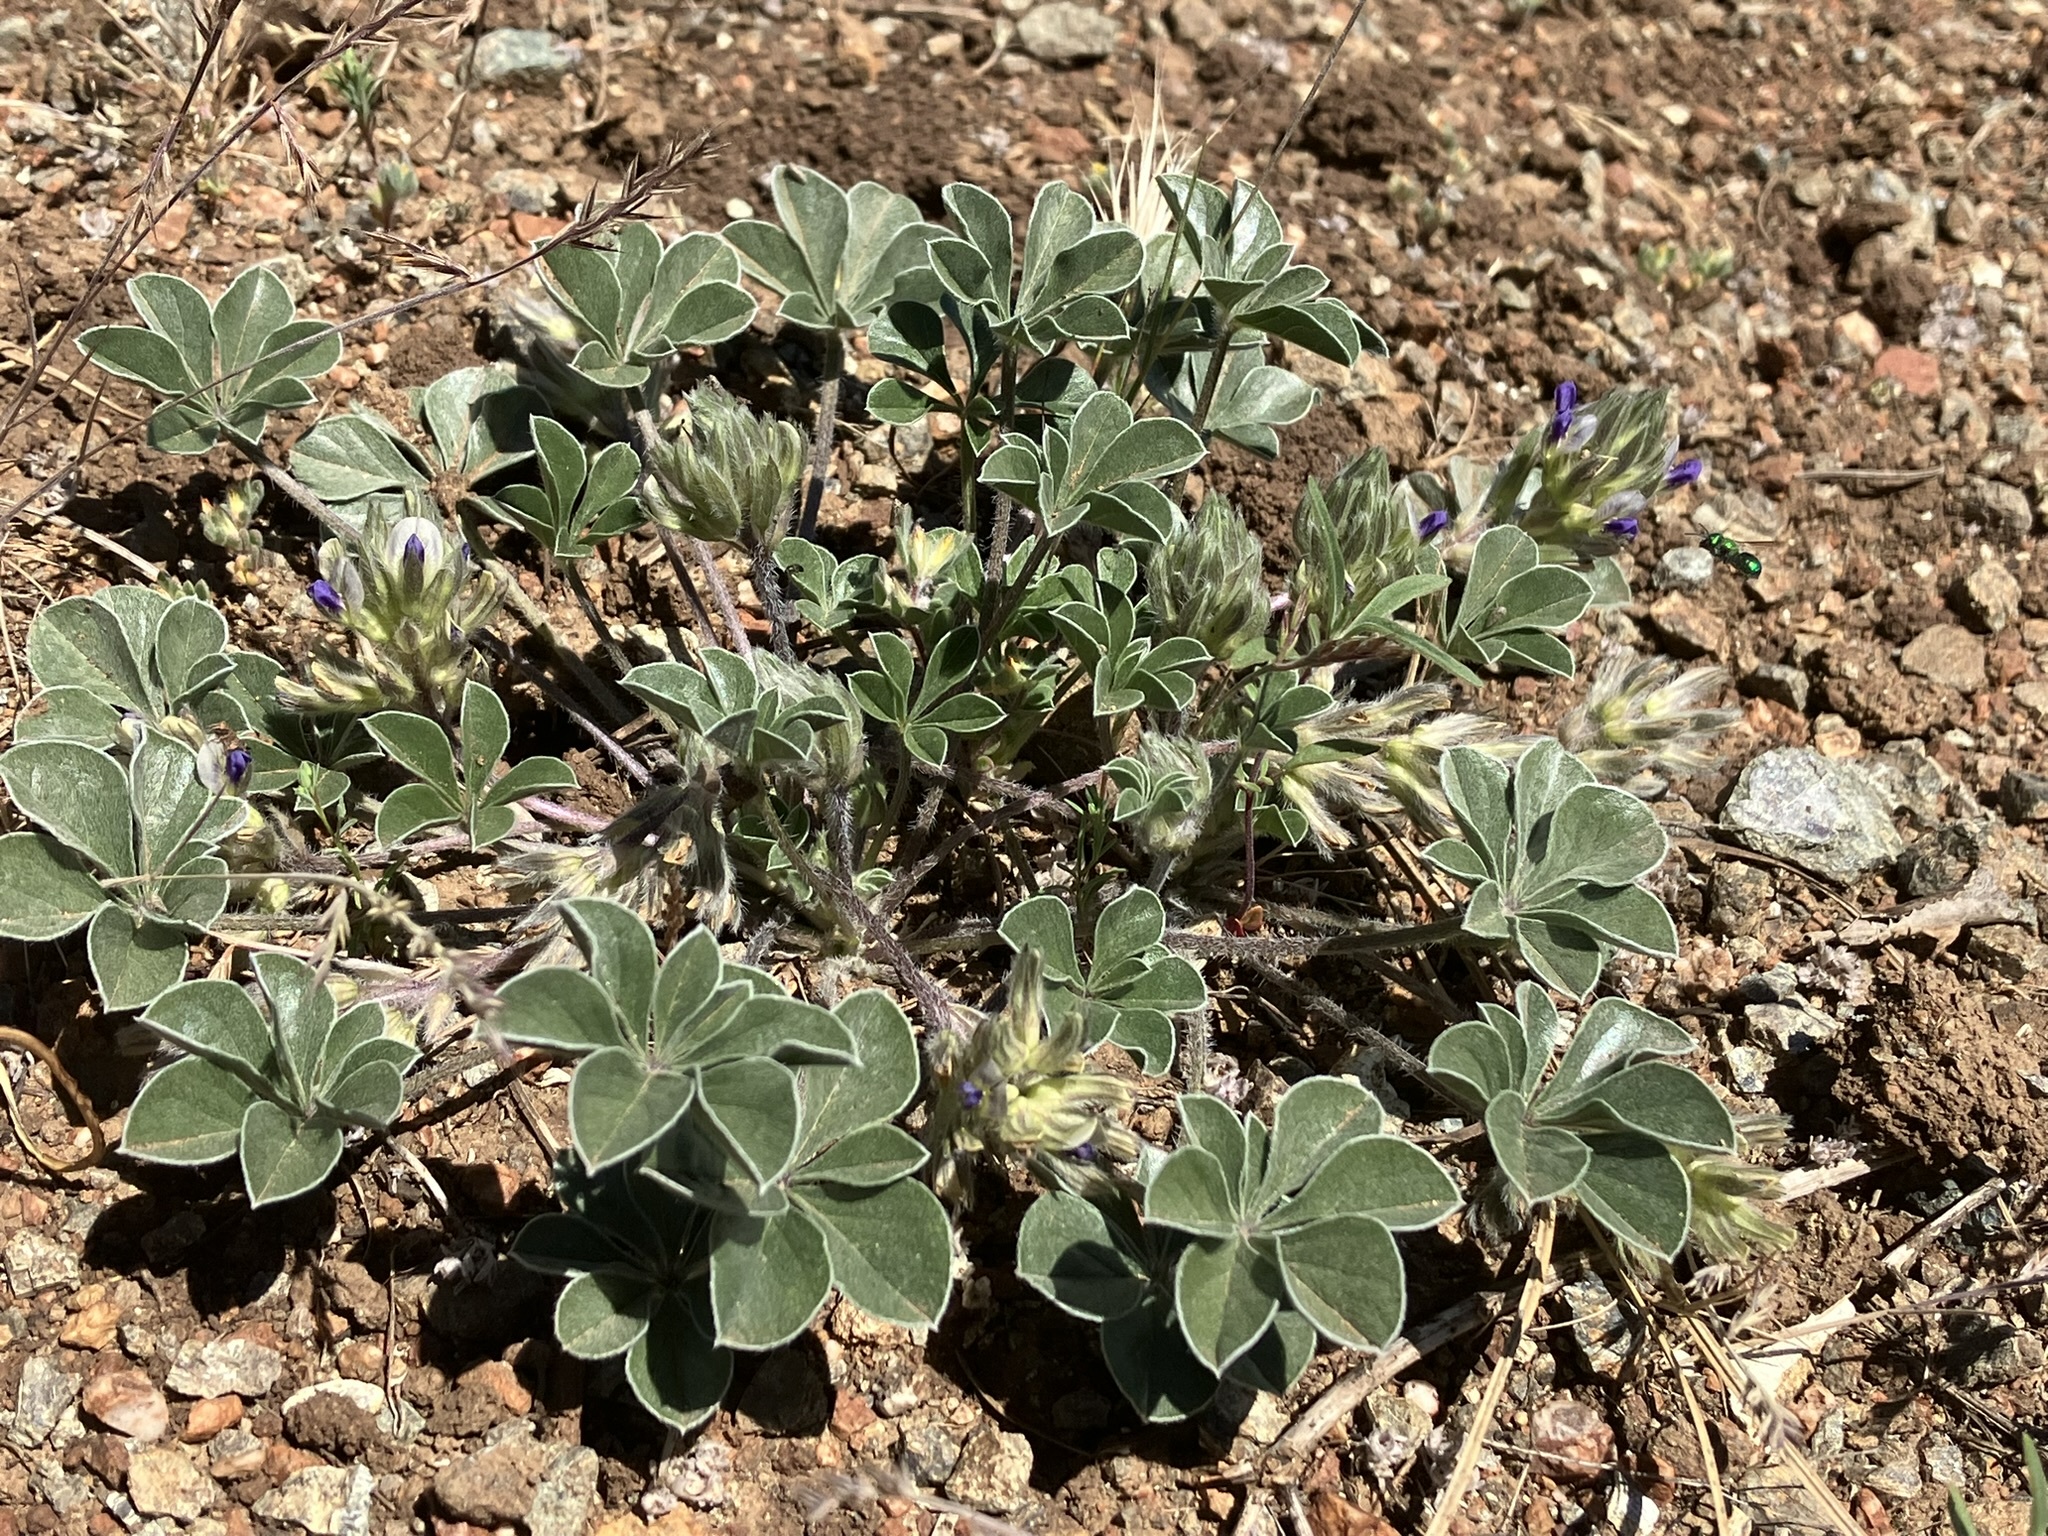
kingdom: Plantae
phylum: Tracheophyta
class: Magnoliopsida
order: Fabales
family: Fabaceae
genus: Pediomelum
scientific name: Pediomelum californicum
